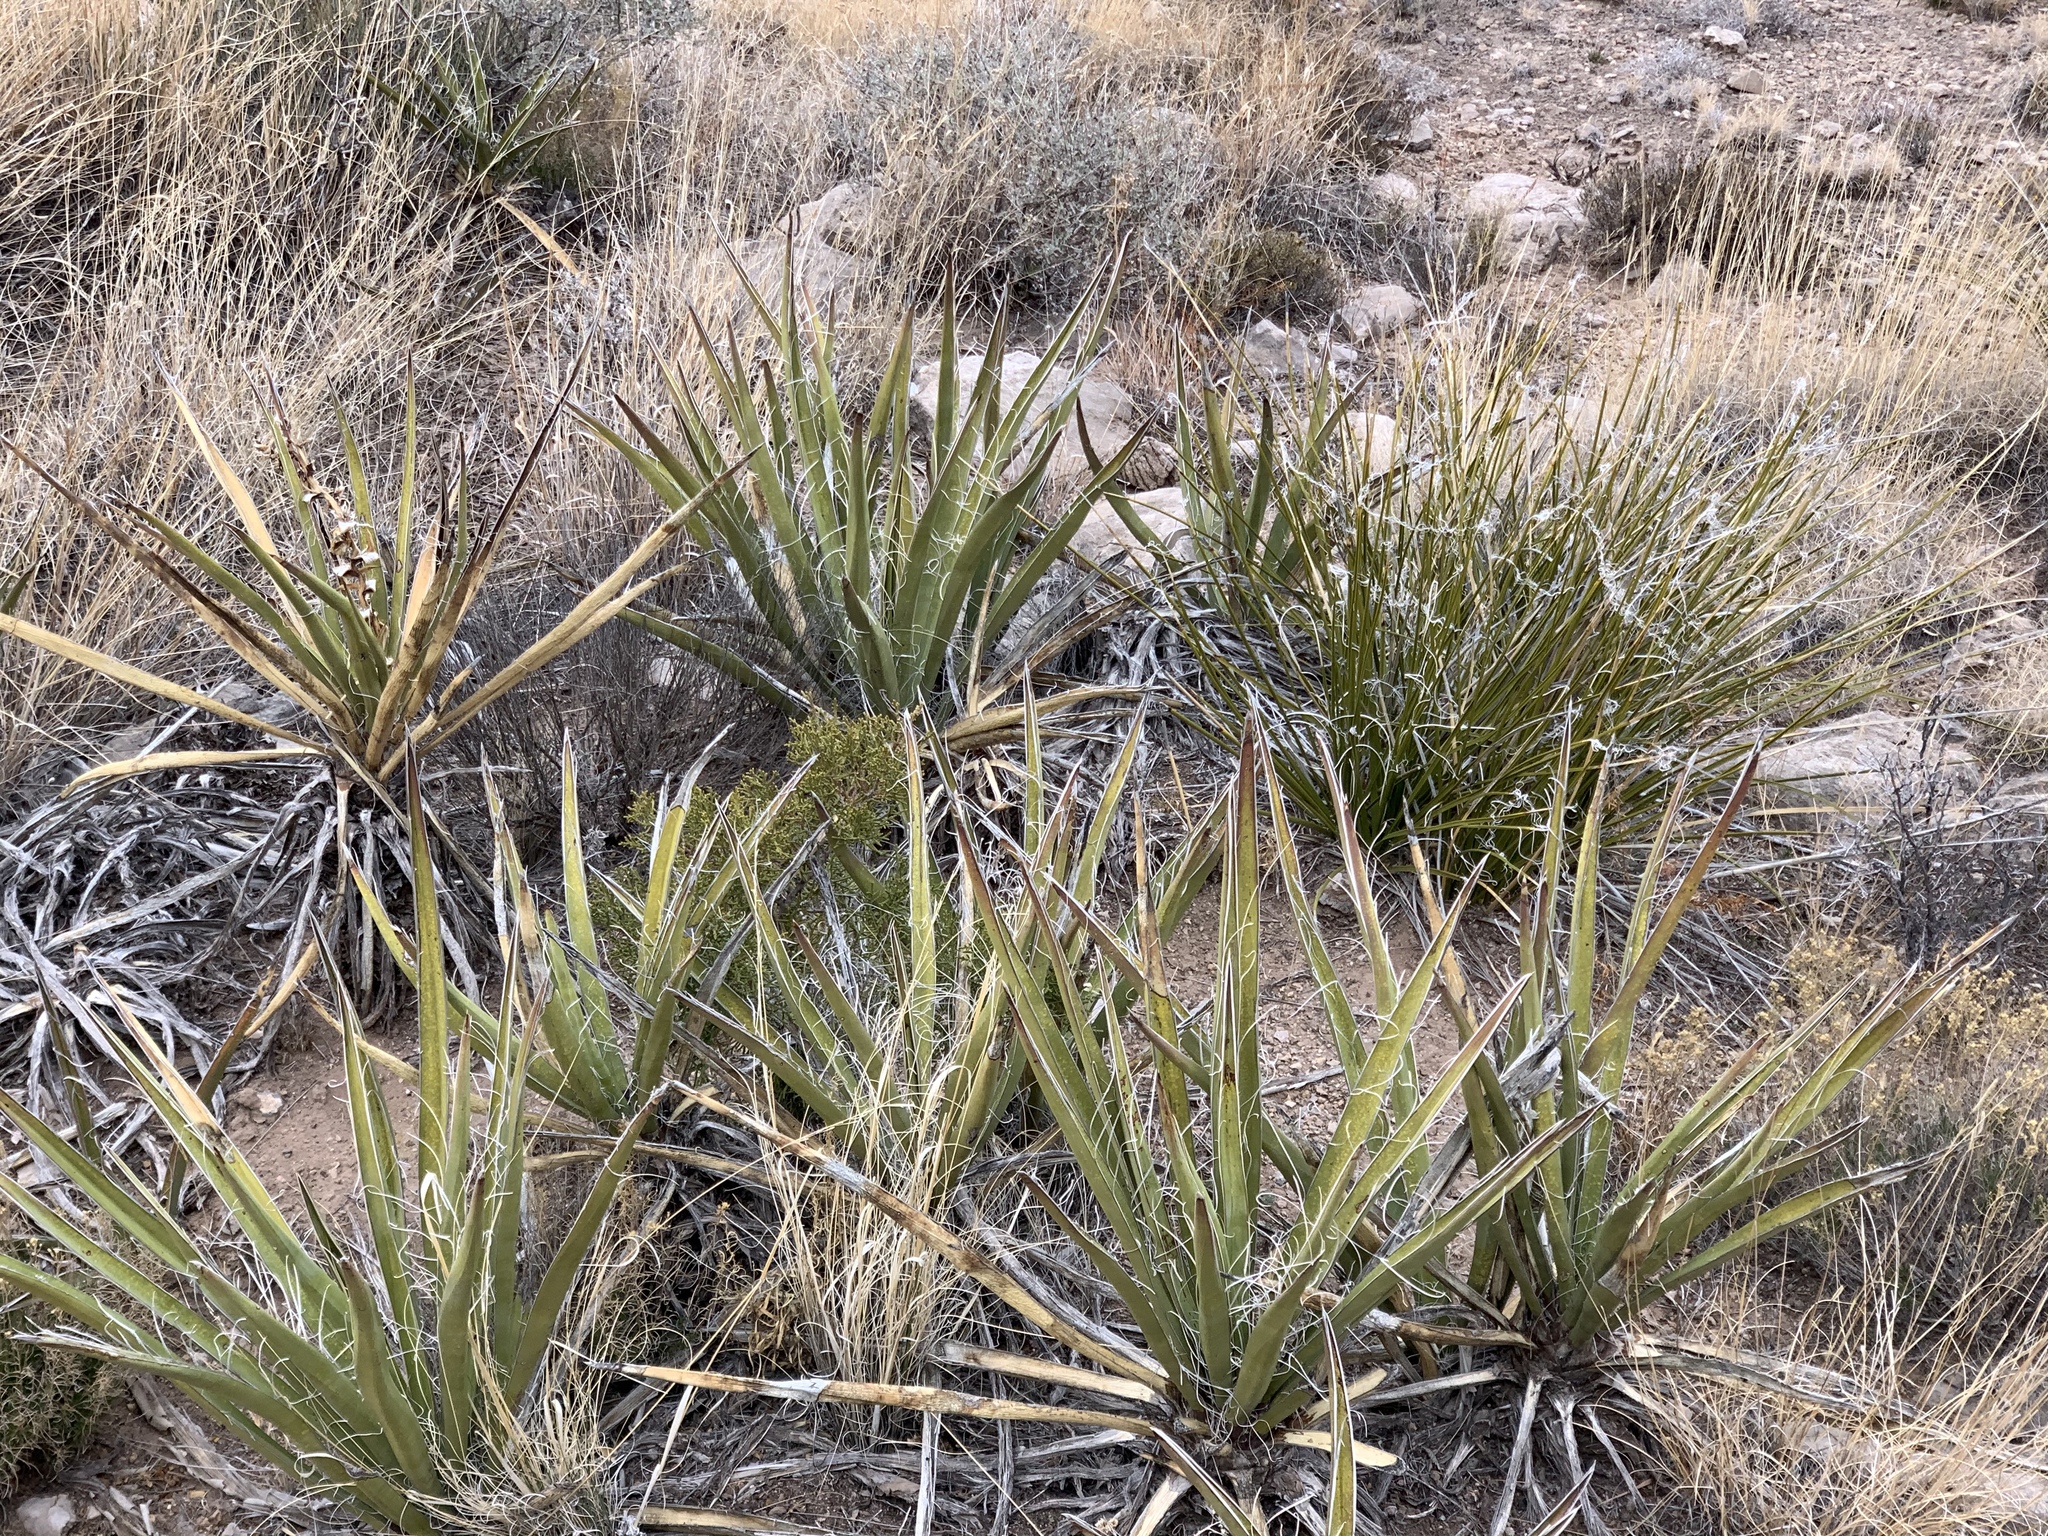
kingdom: Plantae
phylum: Tracheophyta
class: Liliopsida
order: Asparagales
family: Asparagaceae
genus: Yucca
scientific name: Yucca baccata
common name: Banana yucca
